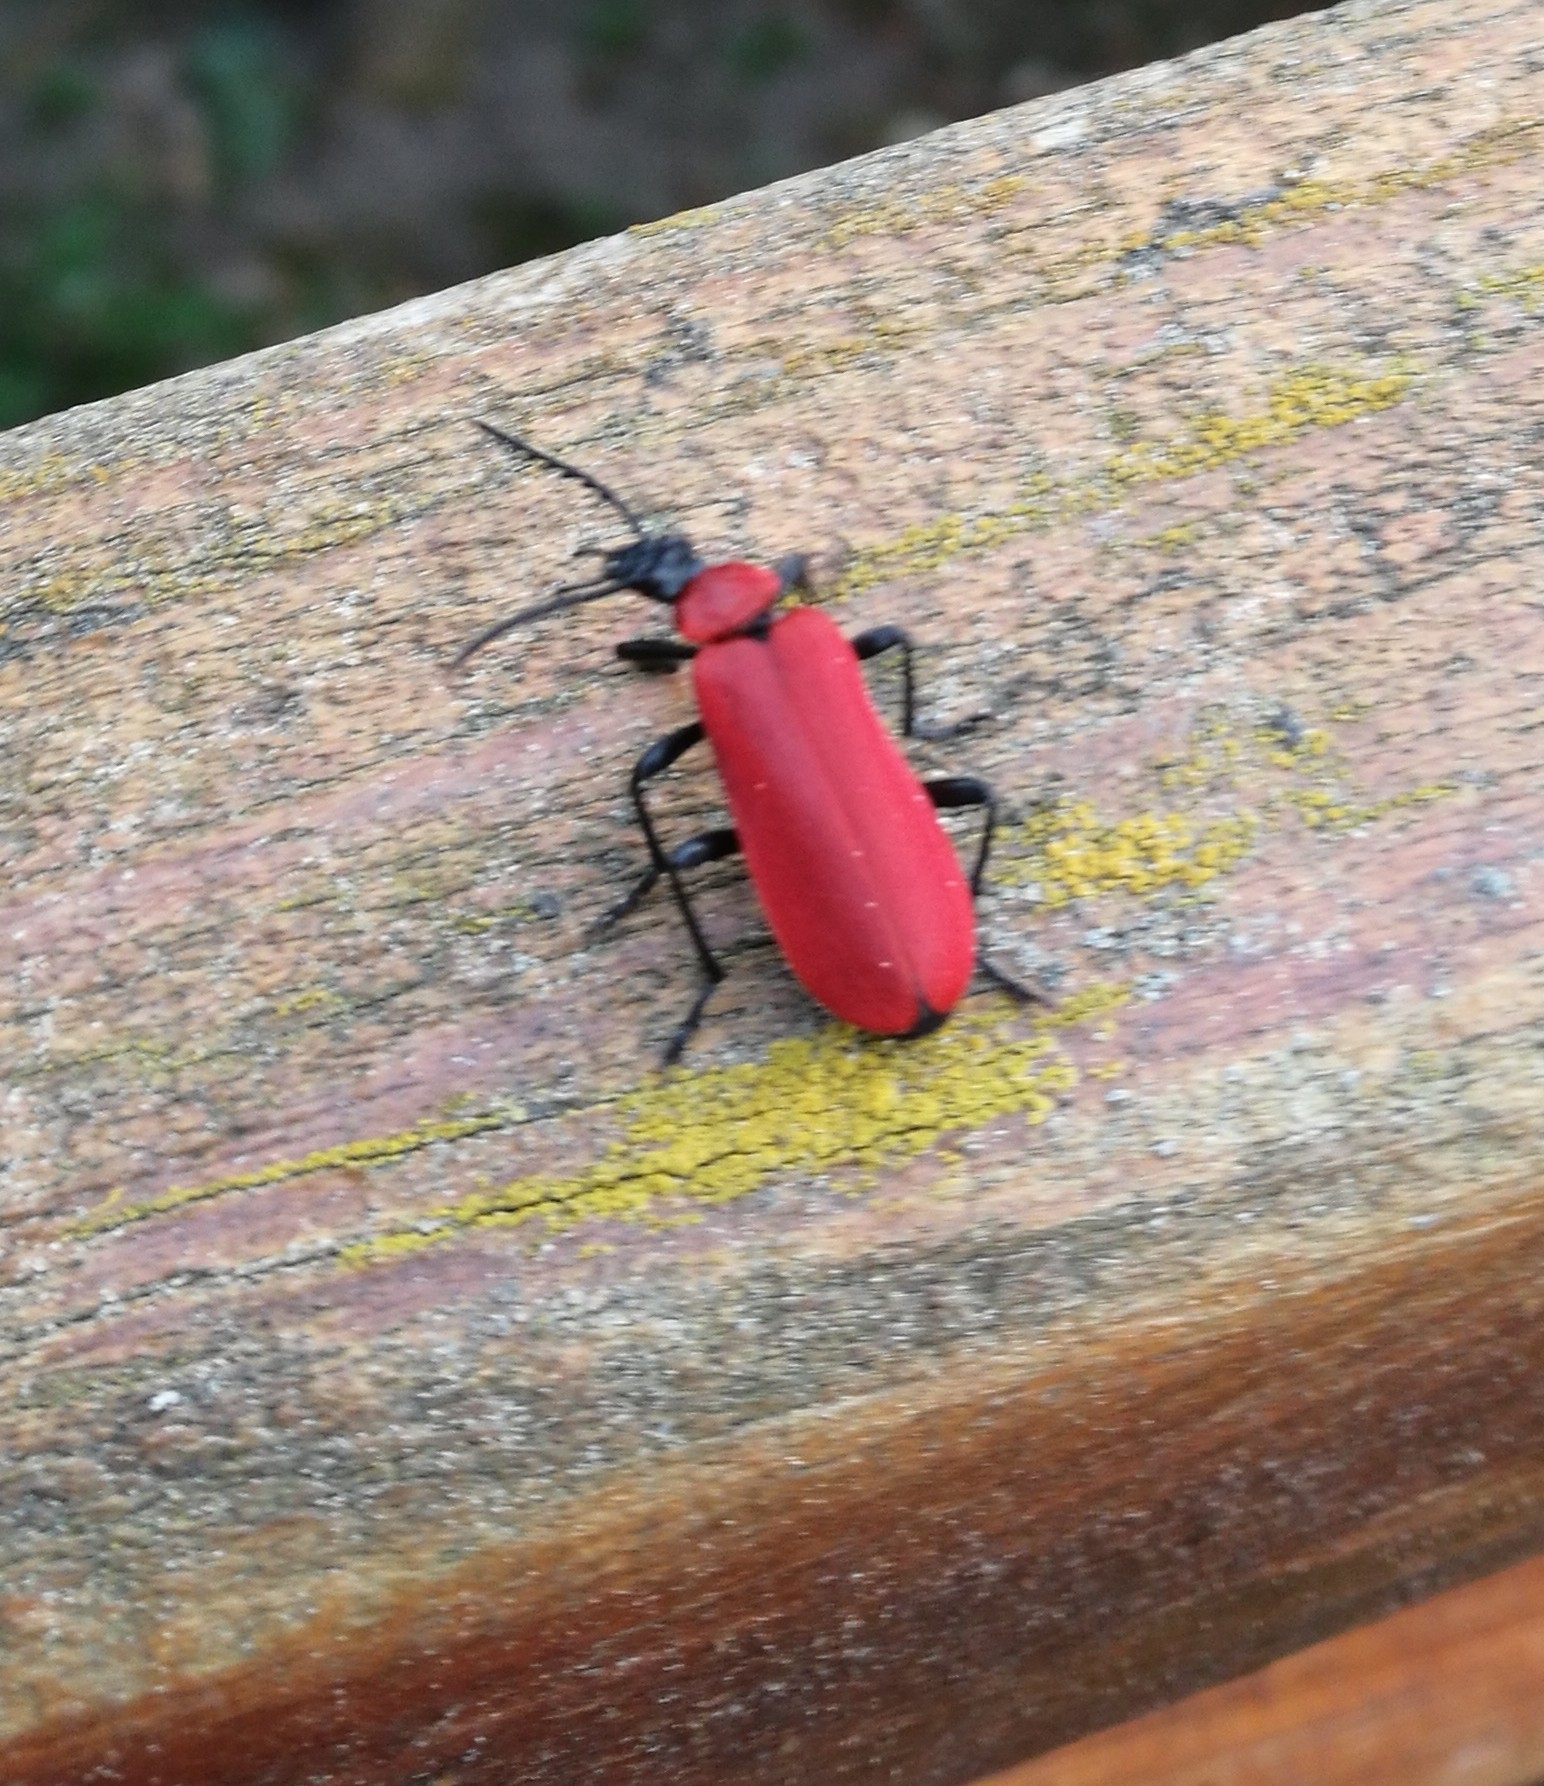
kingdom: Animalia
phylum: Arthropoda
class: Insecta
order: Coleoptera
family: Pyrochroidae
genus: Pyrochroa
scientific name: Pyrochroa coccinea
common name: Black-headed cardinal beetle
